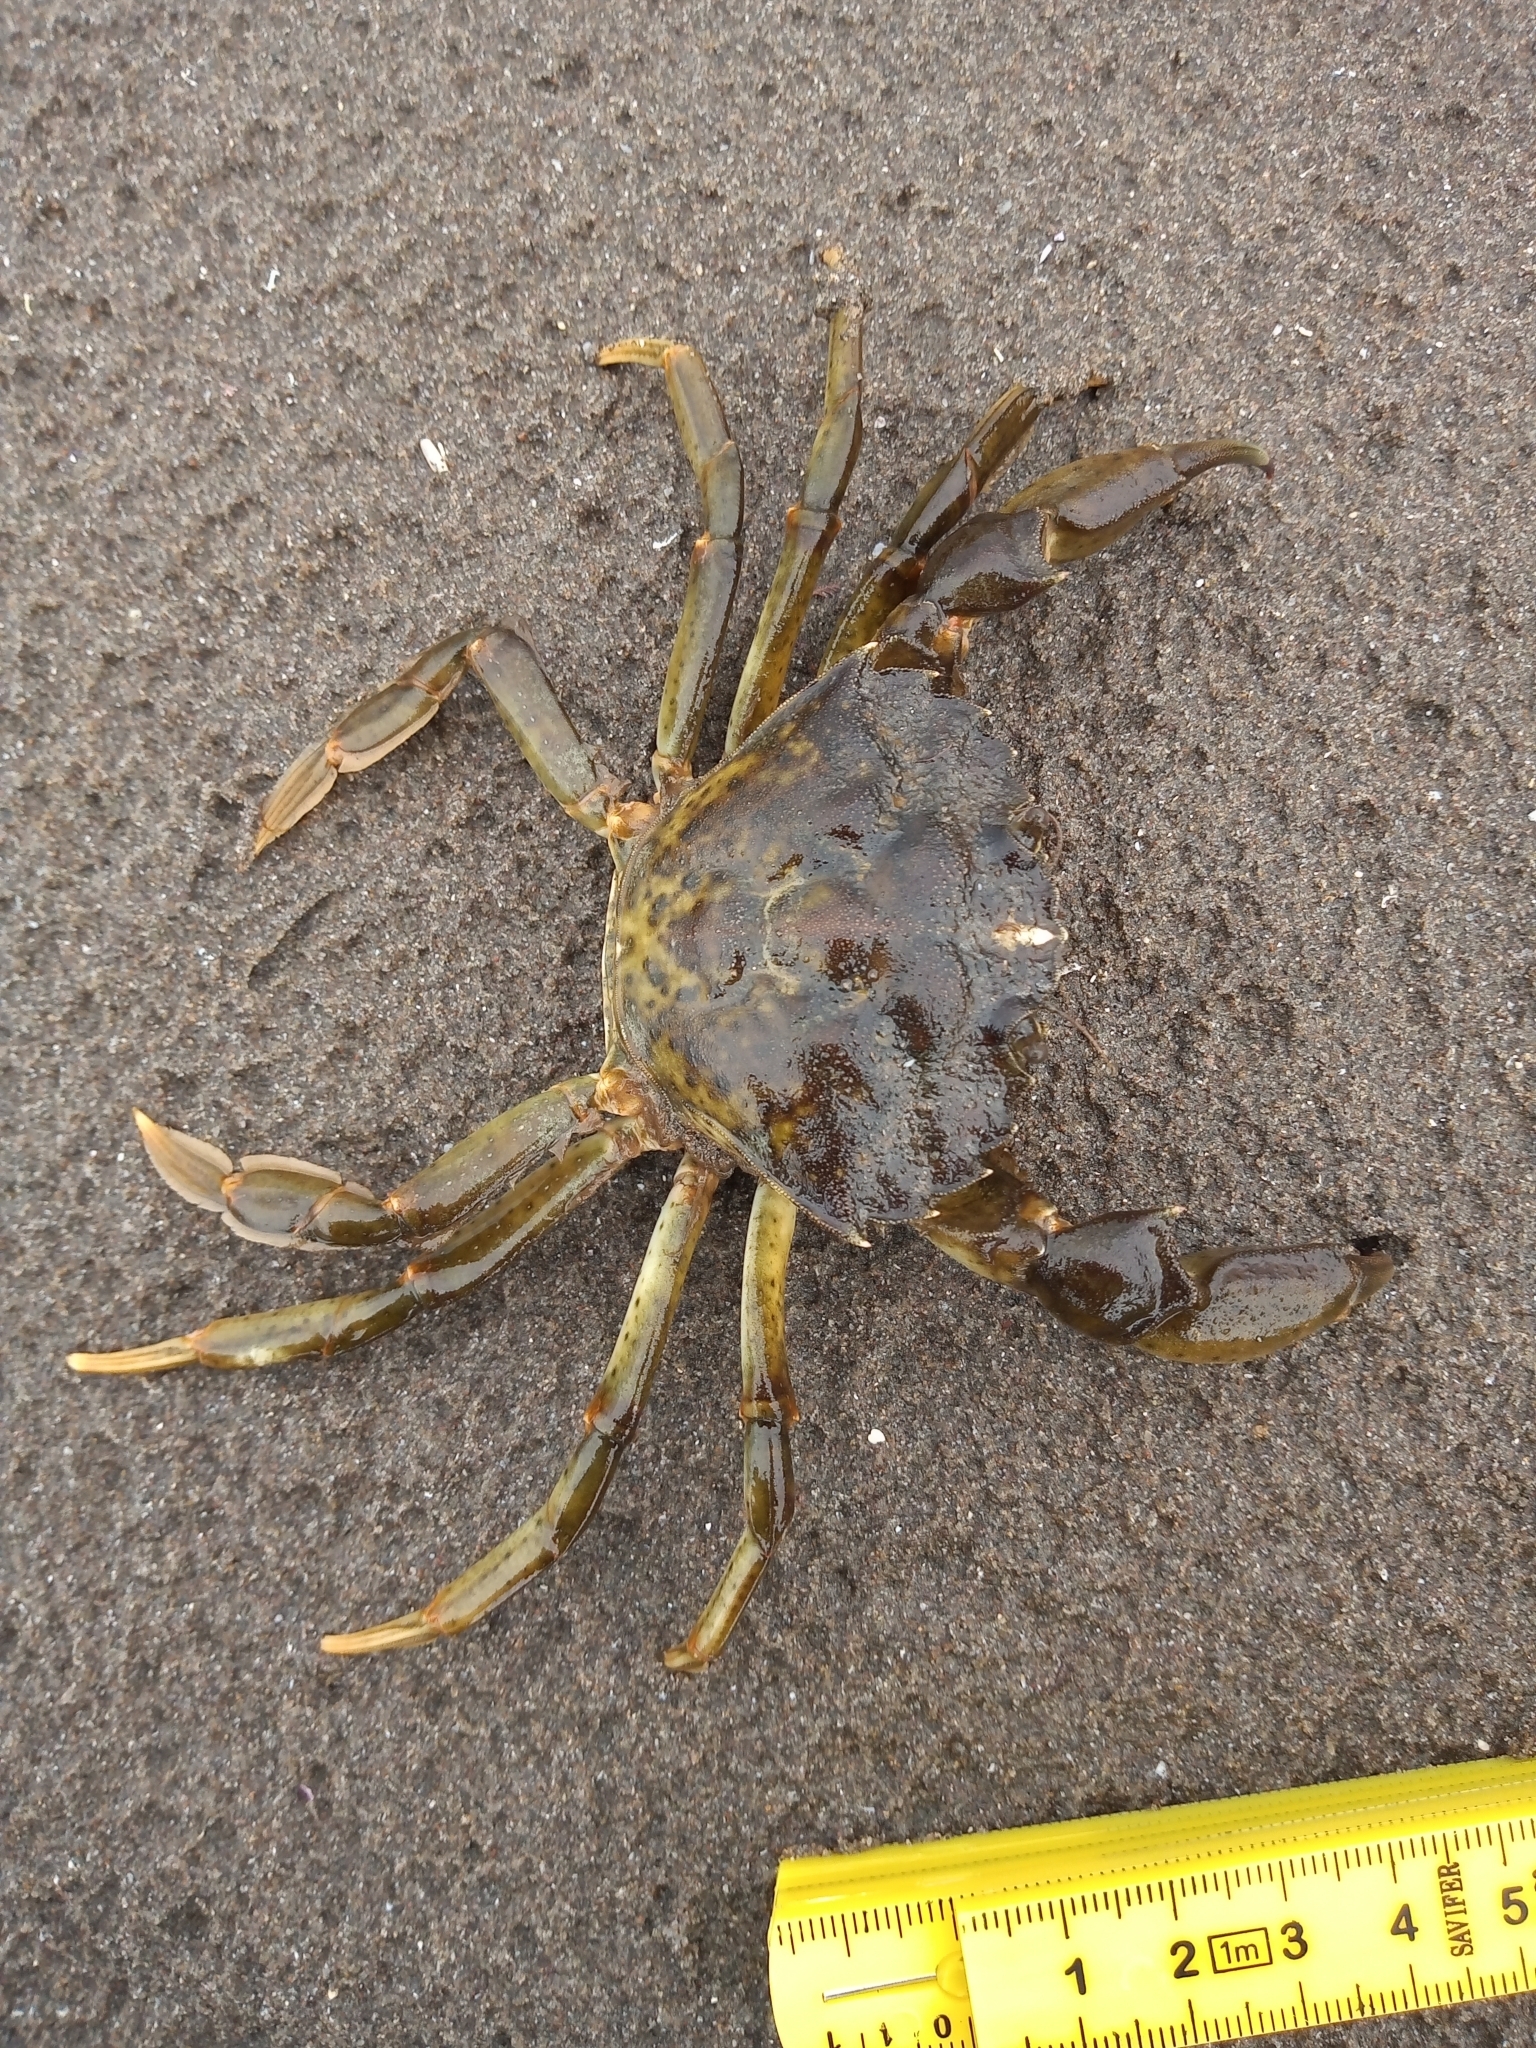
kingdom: Animalia
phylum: Arthropoda
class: Malacostraca
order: Decapoda
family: Carcinidae
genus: Carcinus
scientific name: Carcinus maenas
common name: European green crab
